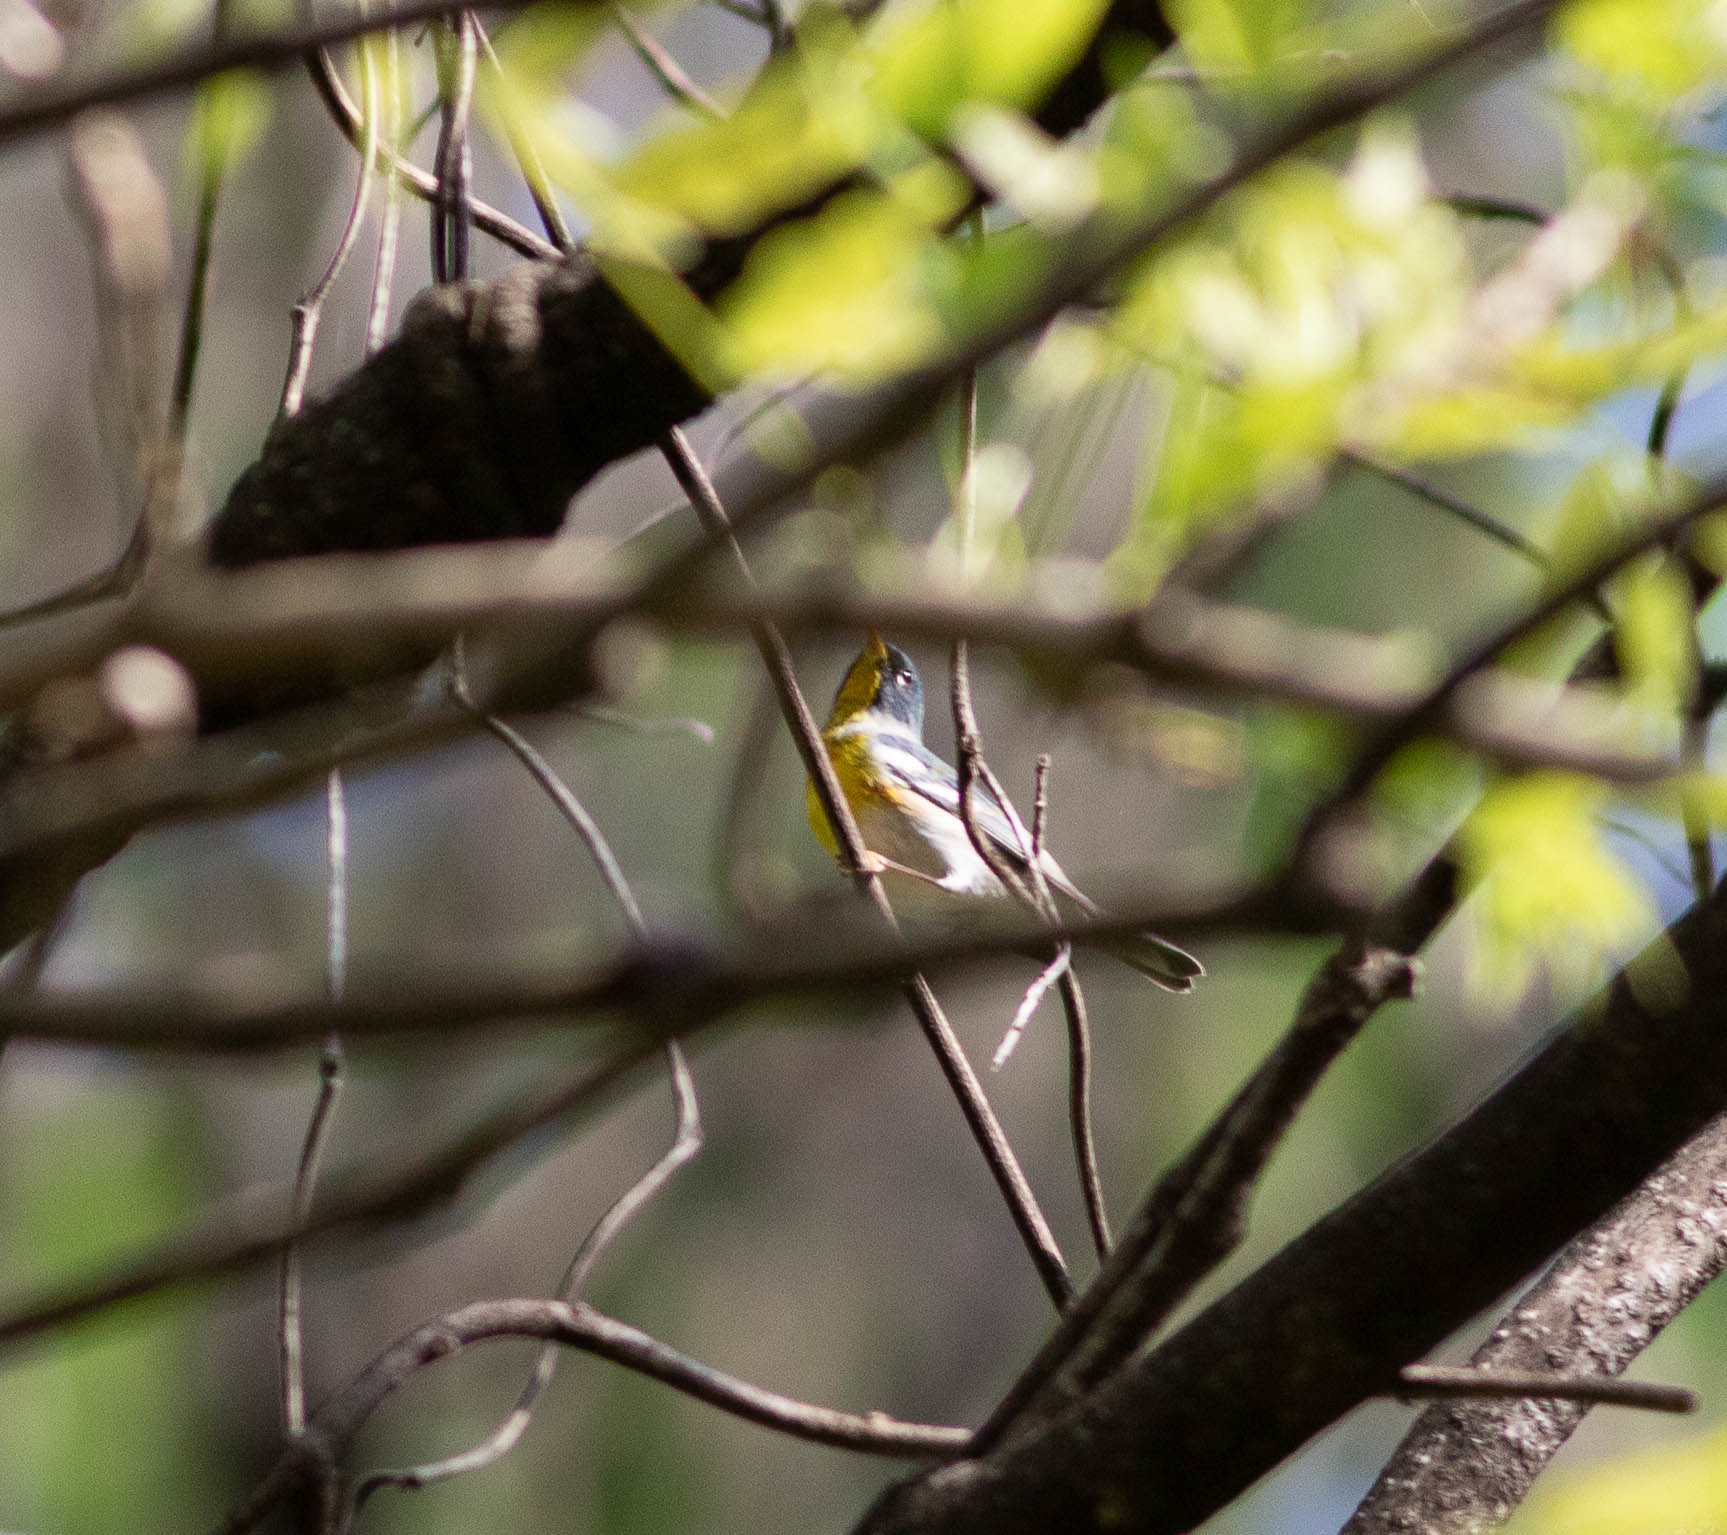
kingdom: Animalia
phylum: Chordata
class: Aves
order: Passeriformes
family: Parulidae
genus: Setophaga
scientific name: Setophaga americana
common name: Northern parula
